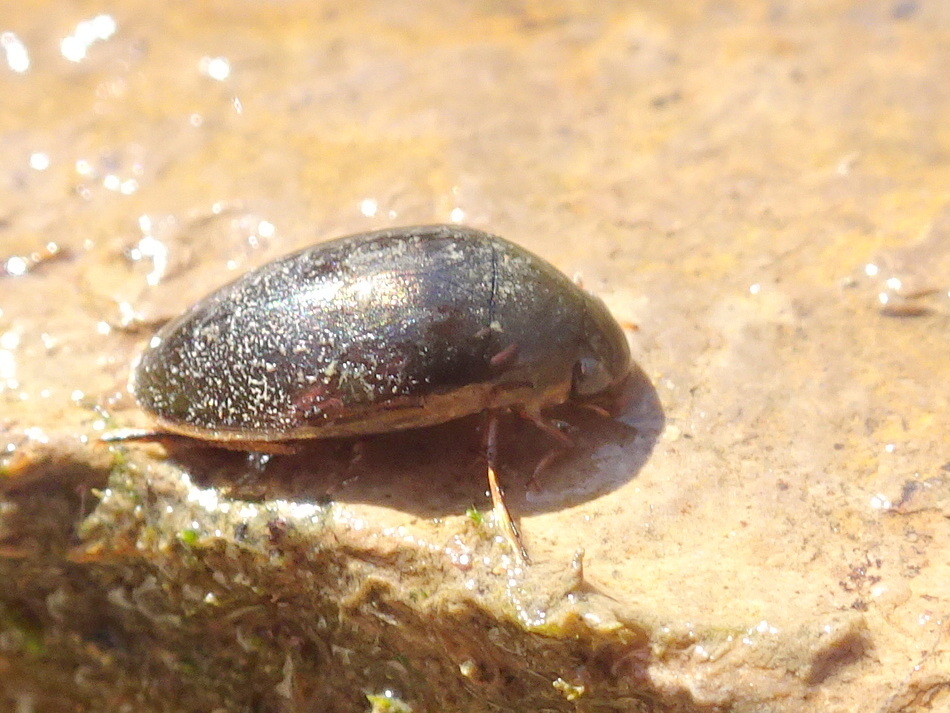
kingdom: Animalia
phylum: Arthropoda
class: Insecta
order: Coleoptera
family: Hydrophilidae
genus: Tropisternus
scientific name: Tropisternus lateralis
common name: Lateral-banded water scavenger beetle
